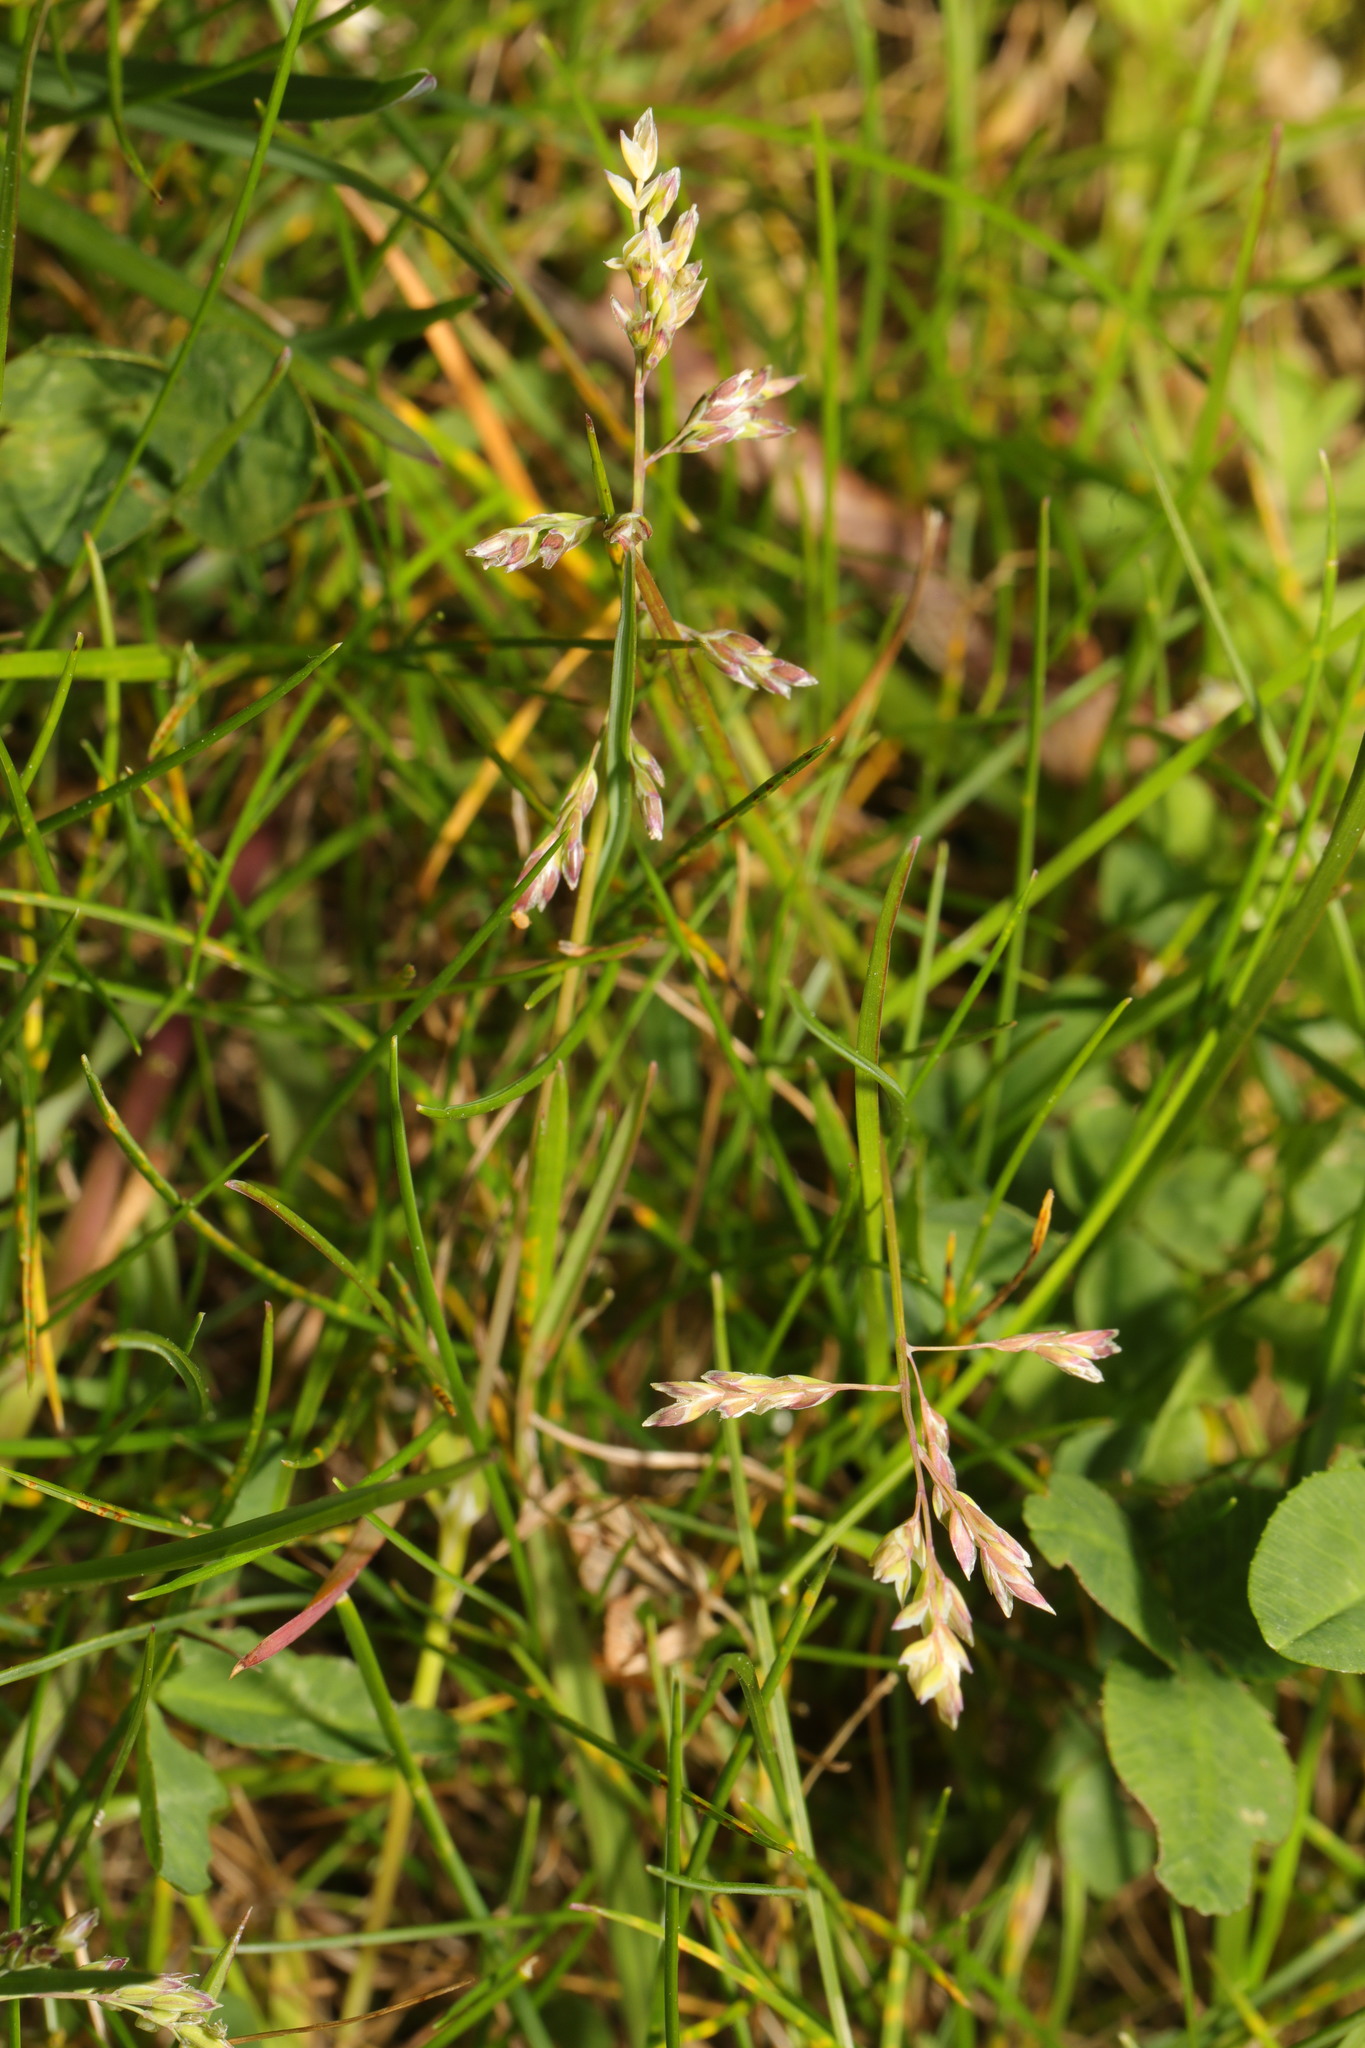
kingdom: Plantae
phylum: Tracheophyta
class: Liliopsida
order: Poales
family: Poaceae
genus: Poa
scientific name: Poa annua
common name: Annual bluegrass
